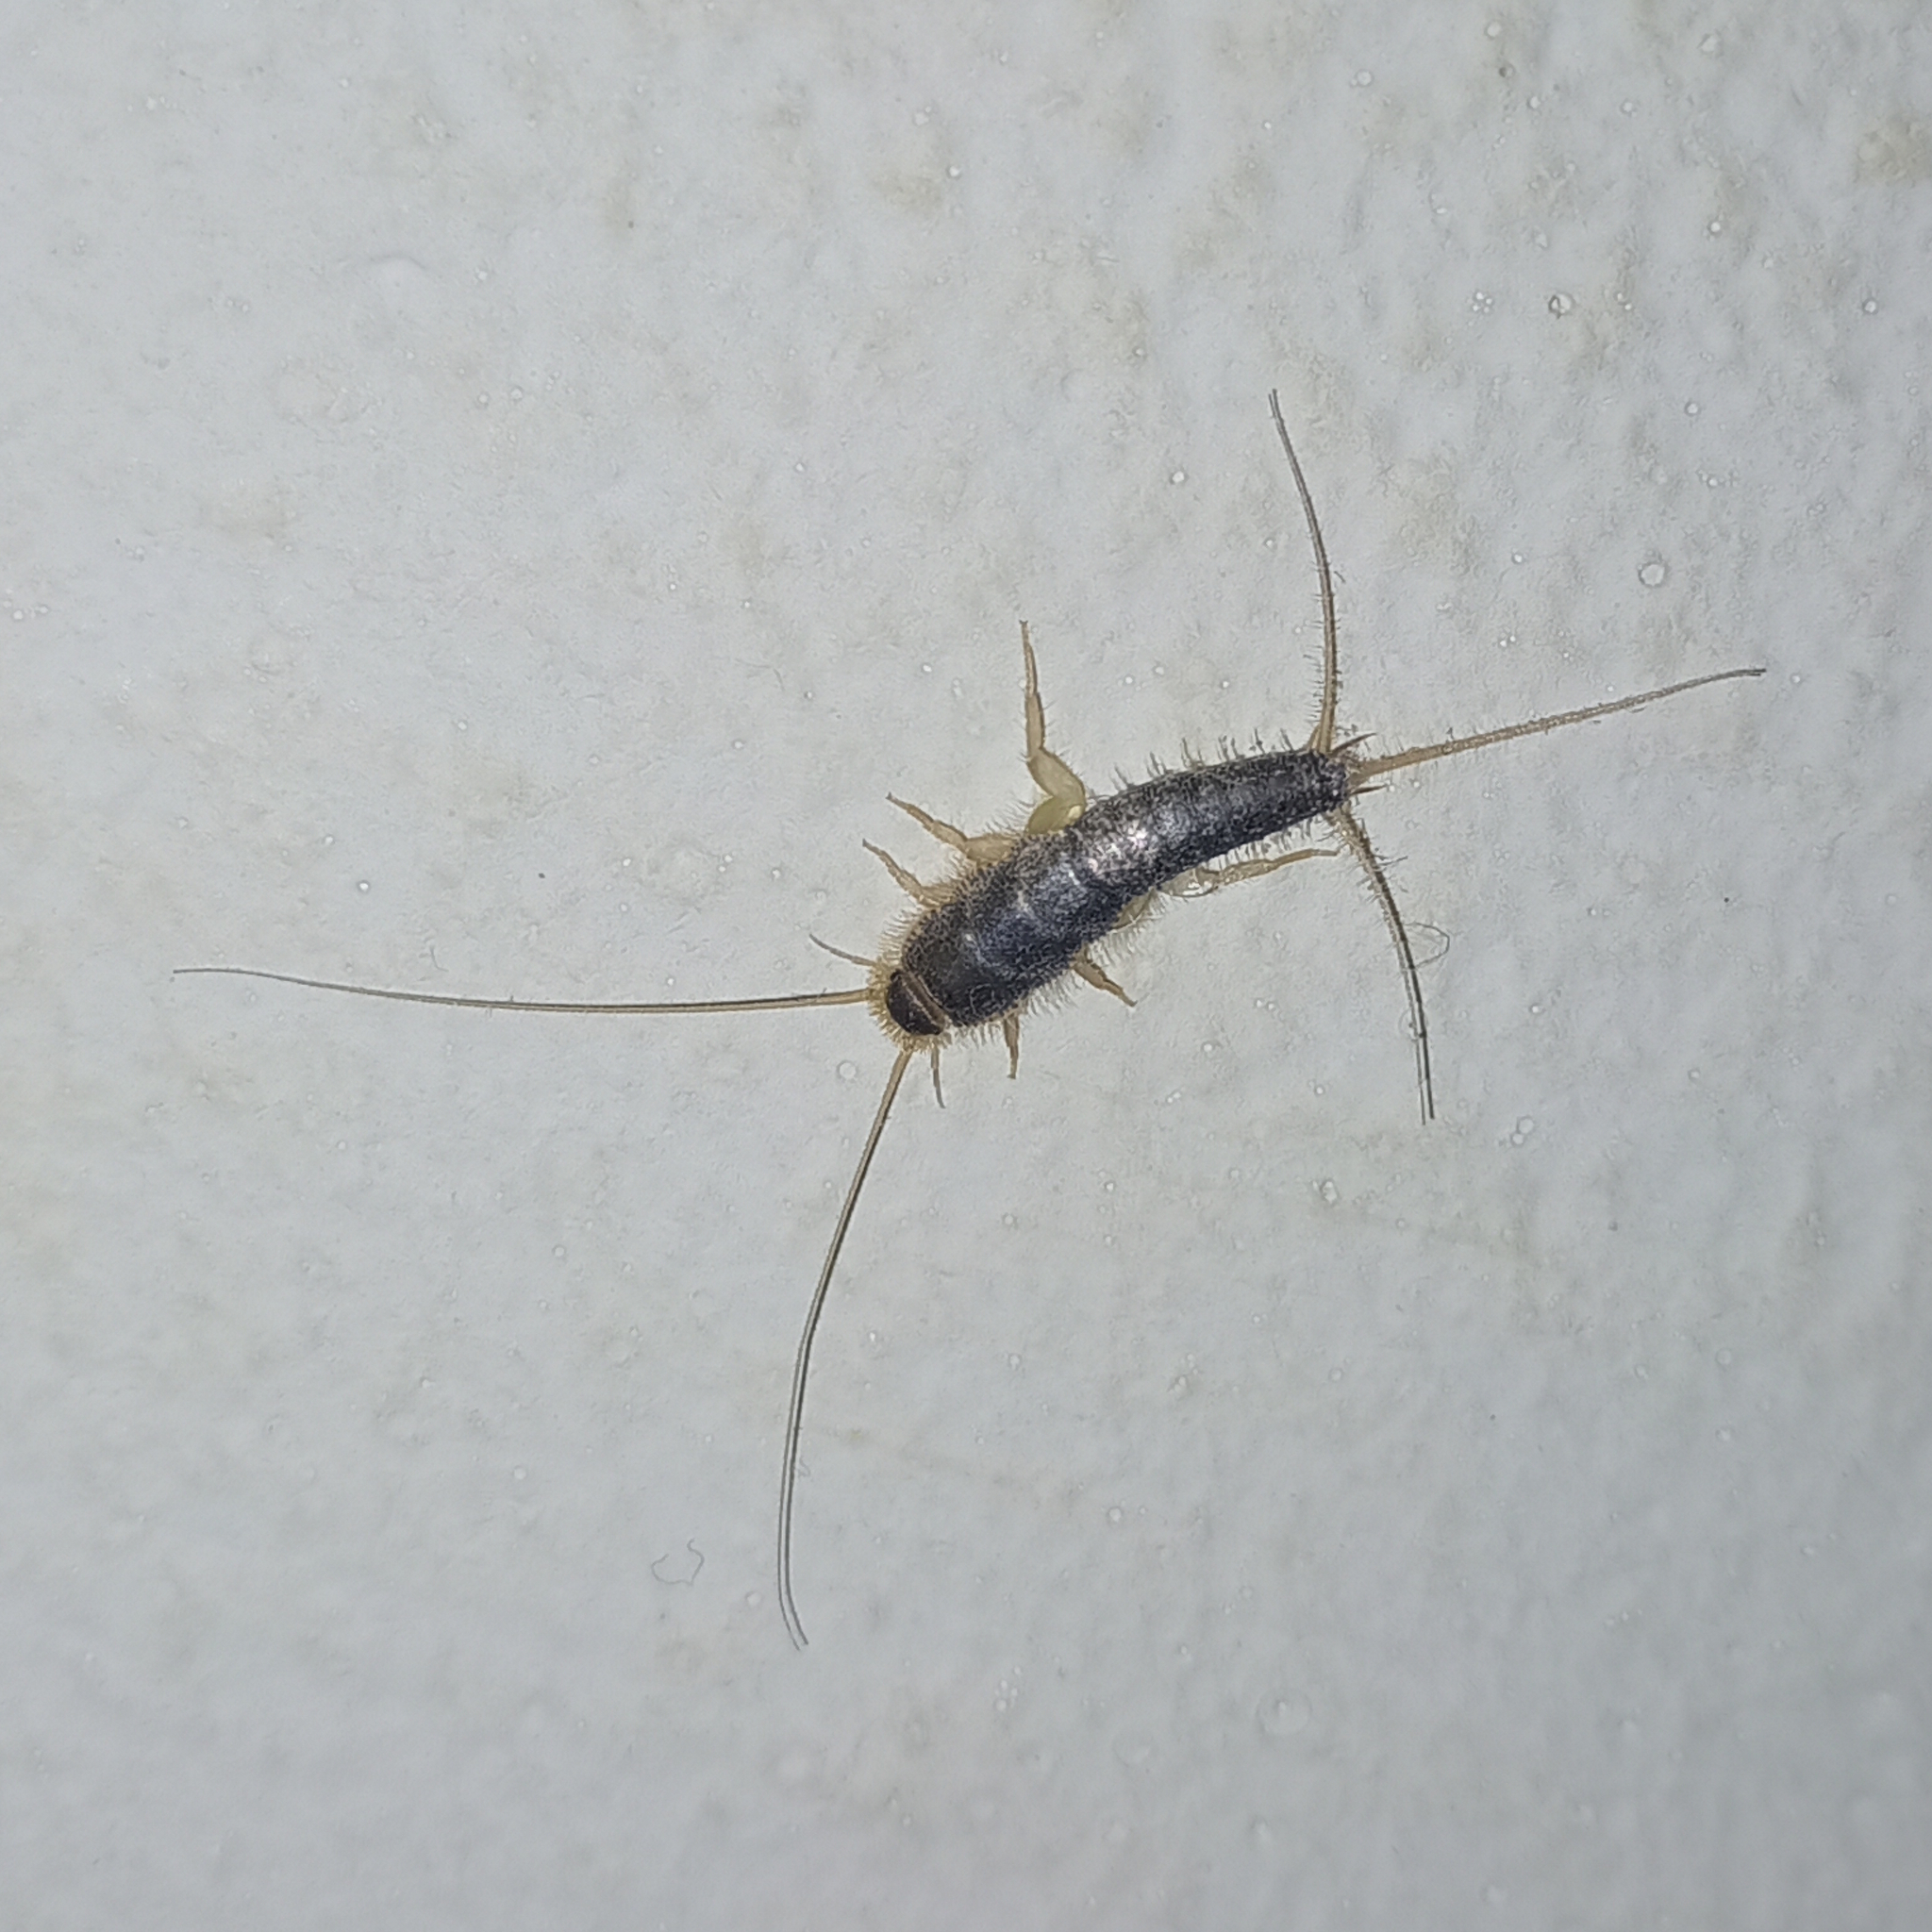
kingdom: Animalia
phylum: Arthropoda
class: Insecta
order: Zygentoma
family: Lepismatidae
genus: Ctenolepisma
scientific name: Ctenolepisma longicaudatum
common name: Silverfish
